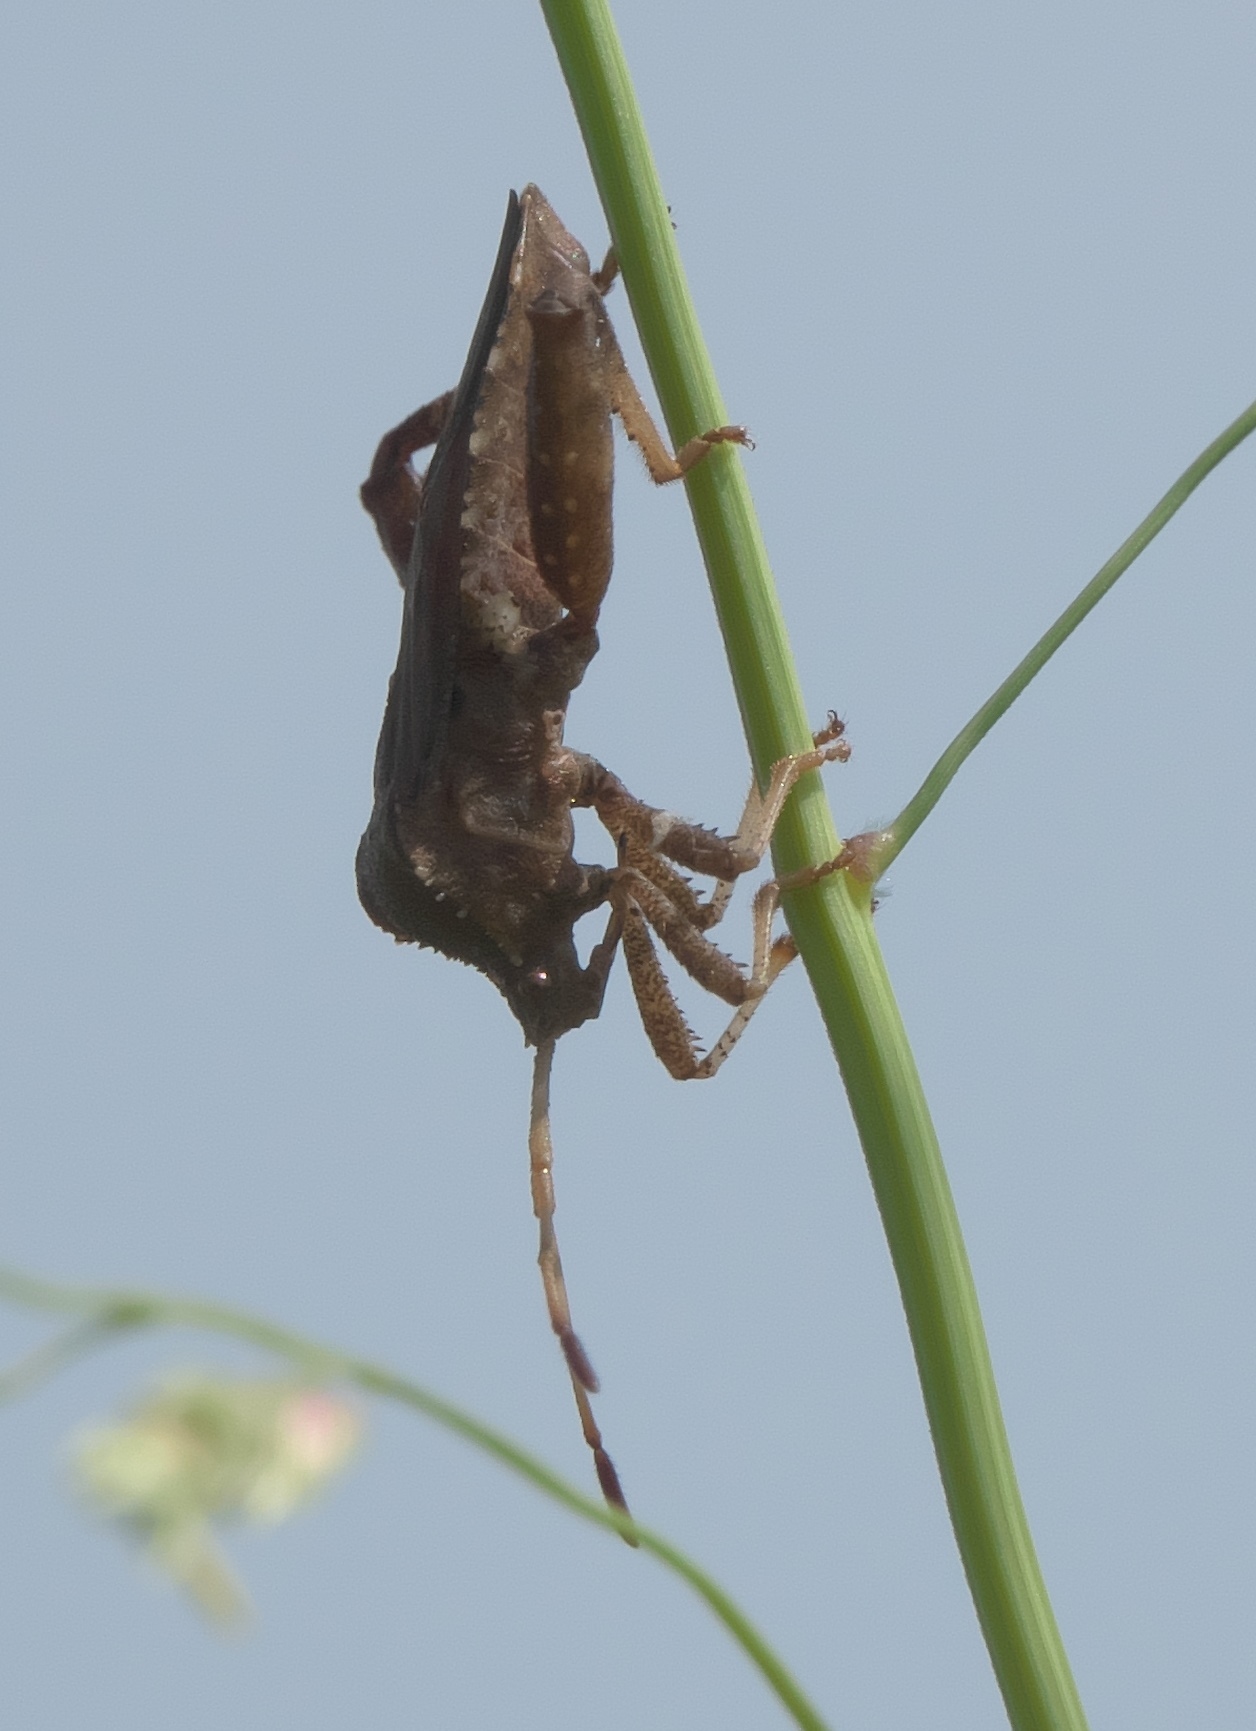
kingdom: Animalia
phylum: Arthropoda
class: Insecta
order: Hemiptera
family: Coreidae
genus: Euthochtha
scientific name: Euthochtha galeator
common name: Helmeted squash bug
